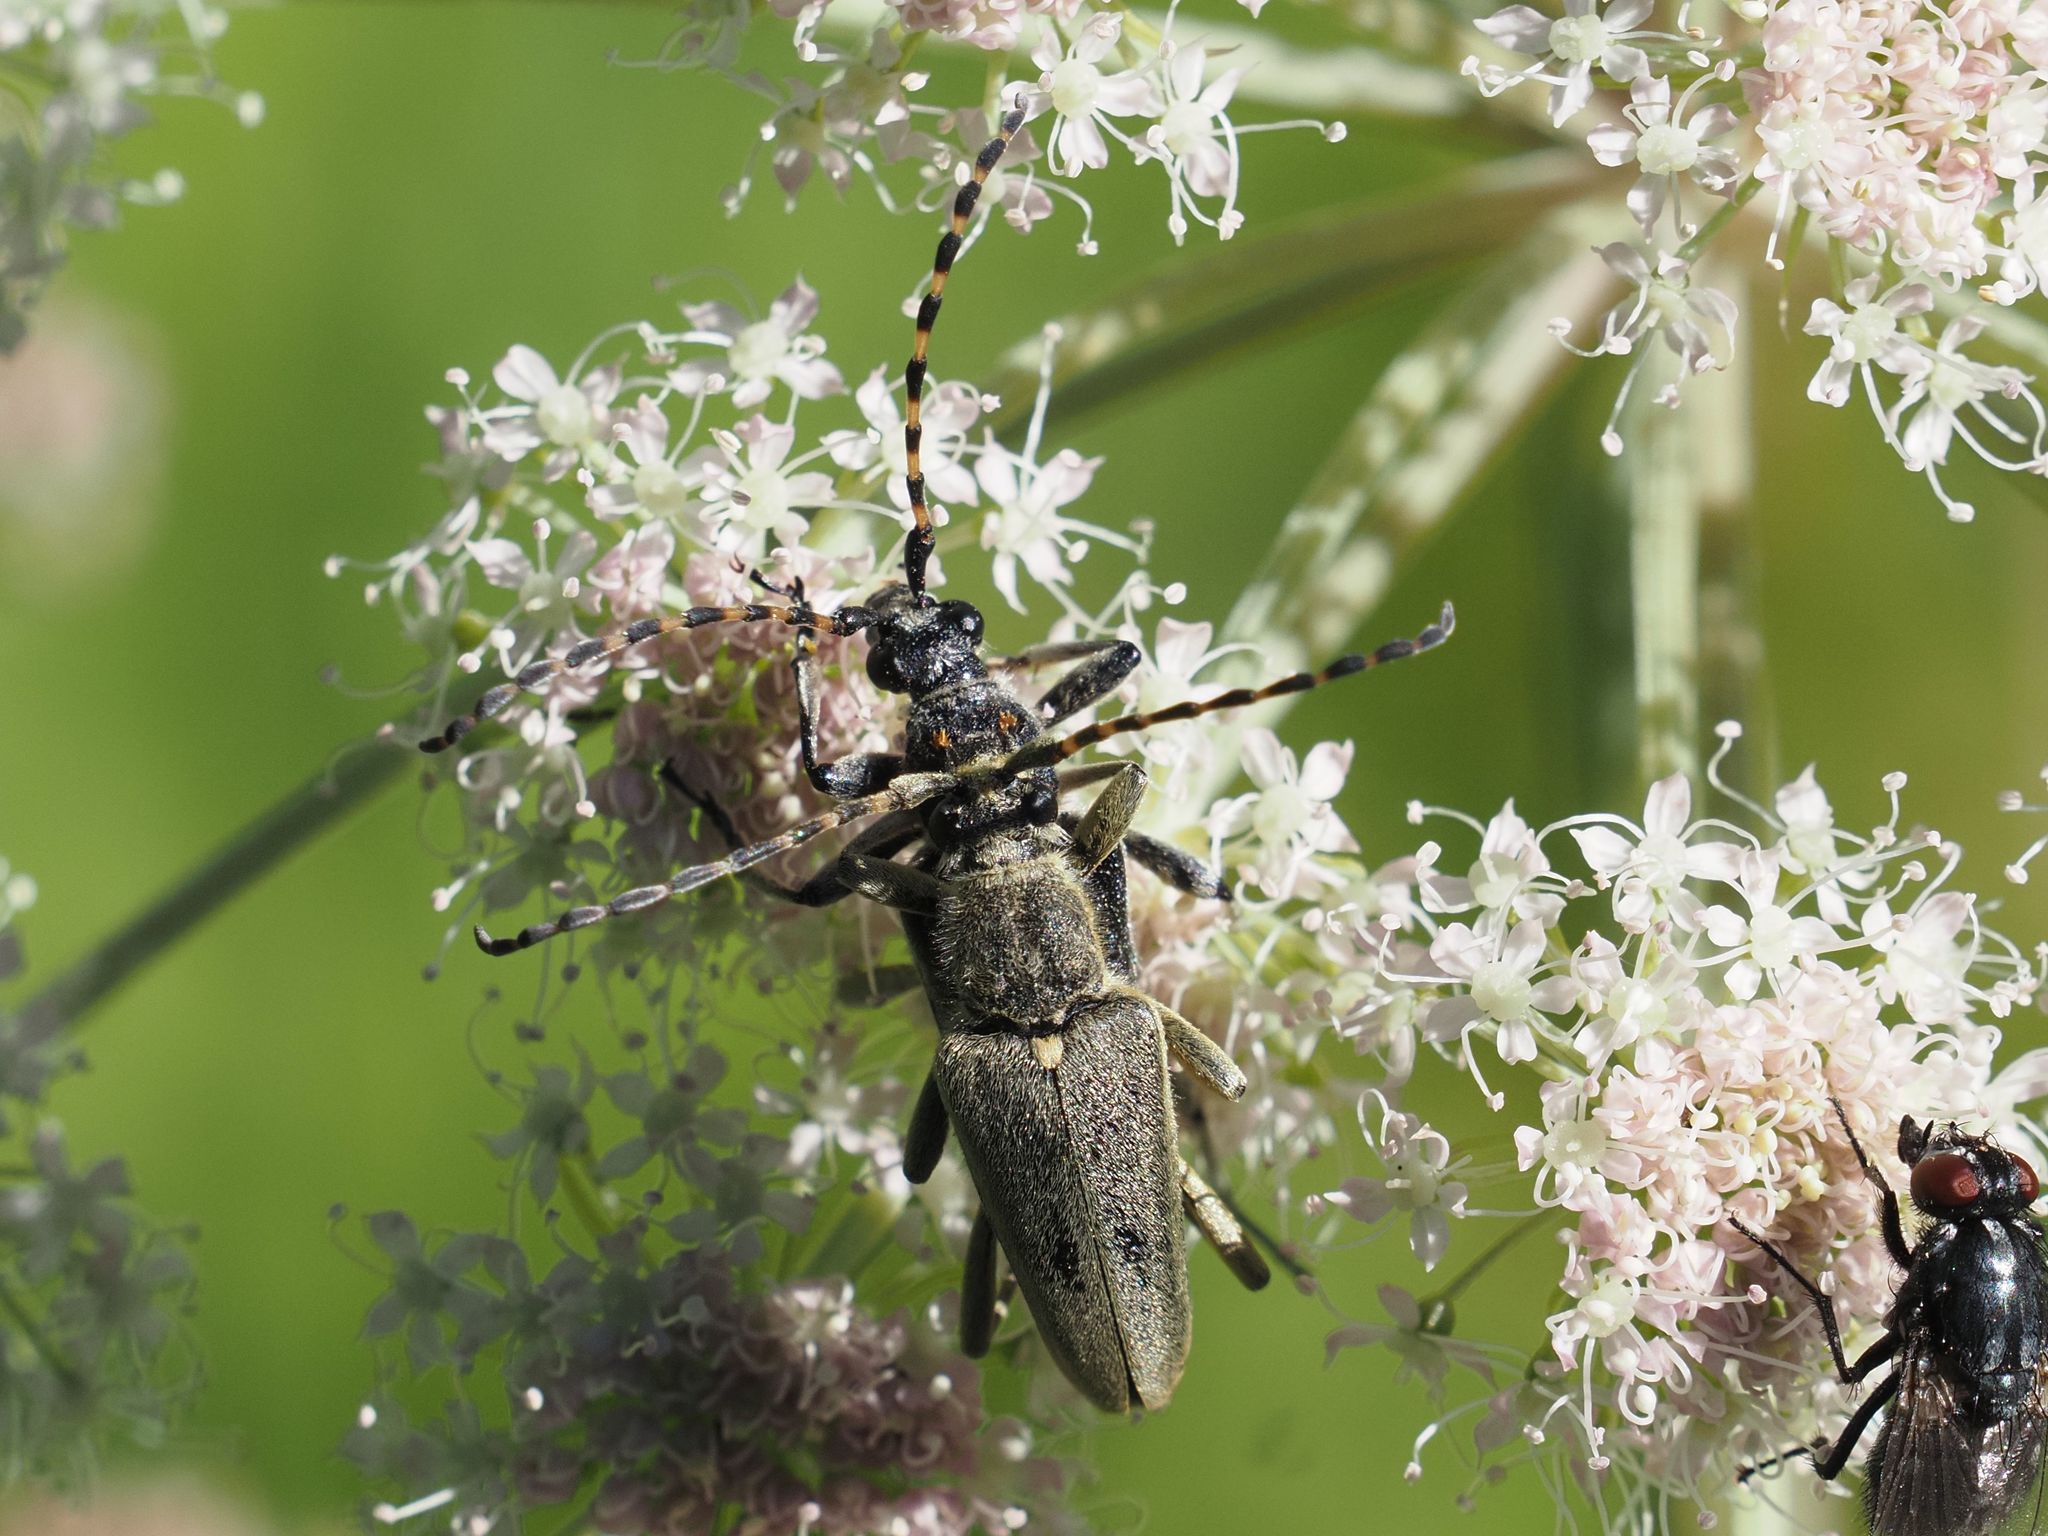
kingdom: Animalia
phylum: Arthropoda
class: Insecta
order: Coleoptera
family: Cerambycidae
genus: Lepturobosca
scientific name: Lepturobosca virens
